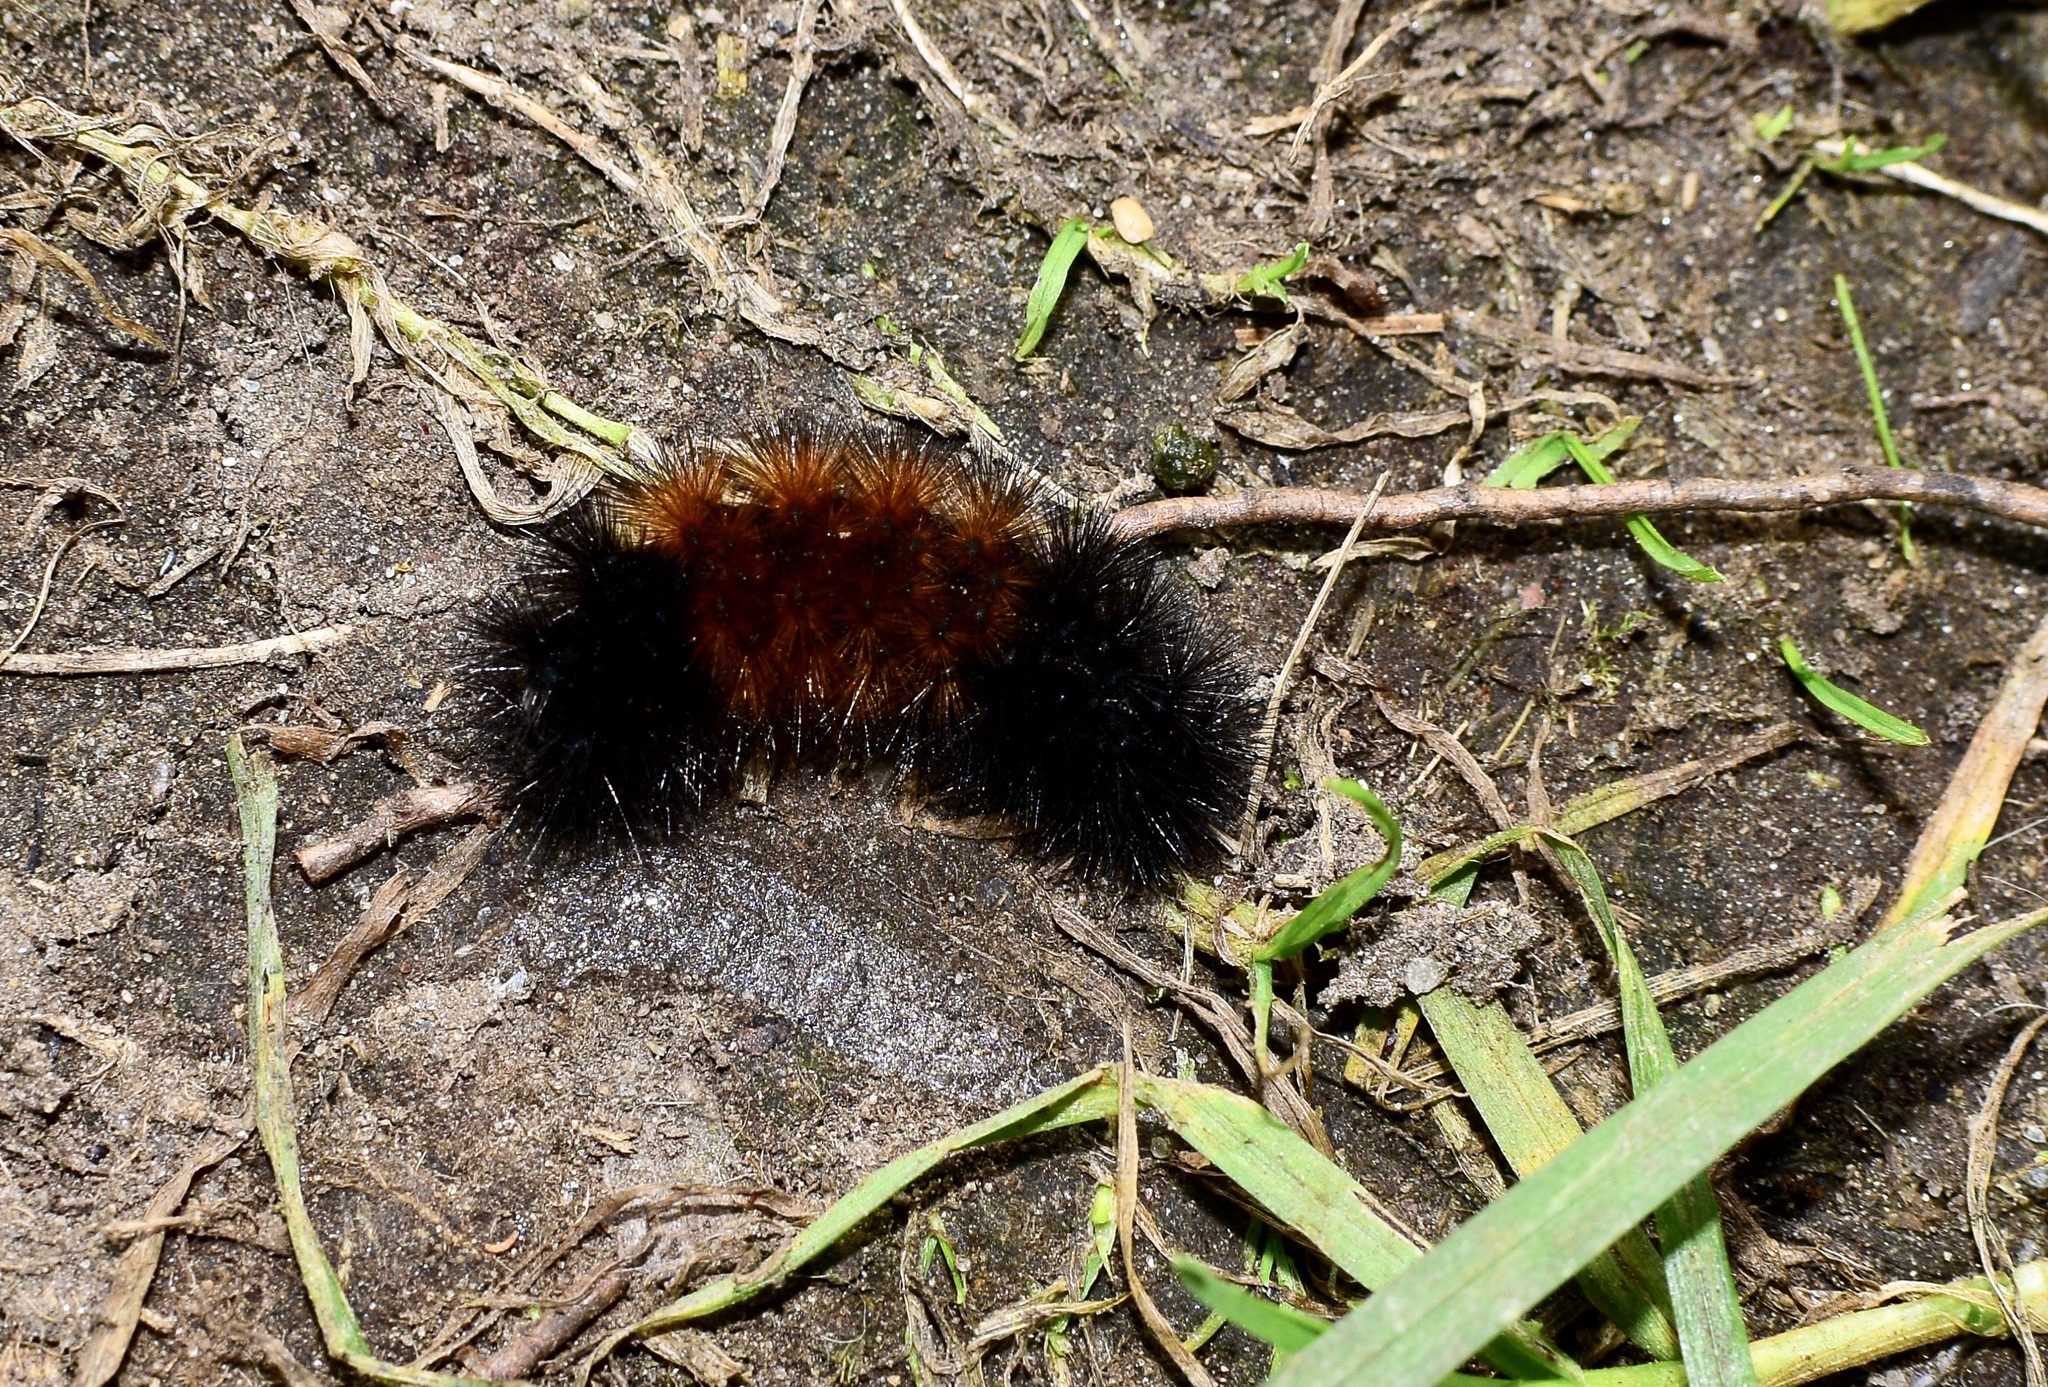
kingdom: Animalia
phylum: Arthropoda
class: Insecta
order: Lepidoptera
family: Erebidae
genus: Pyrrharctia
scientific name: Pyrrharctia isabella
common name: Isabella tiger moth
